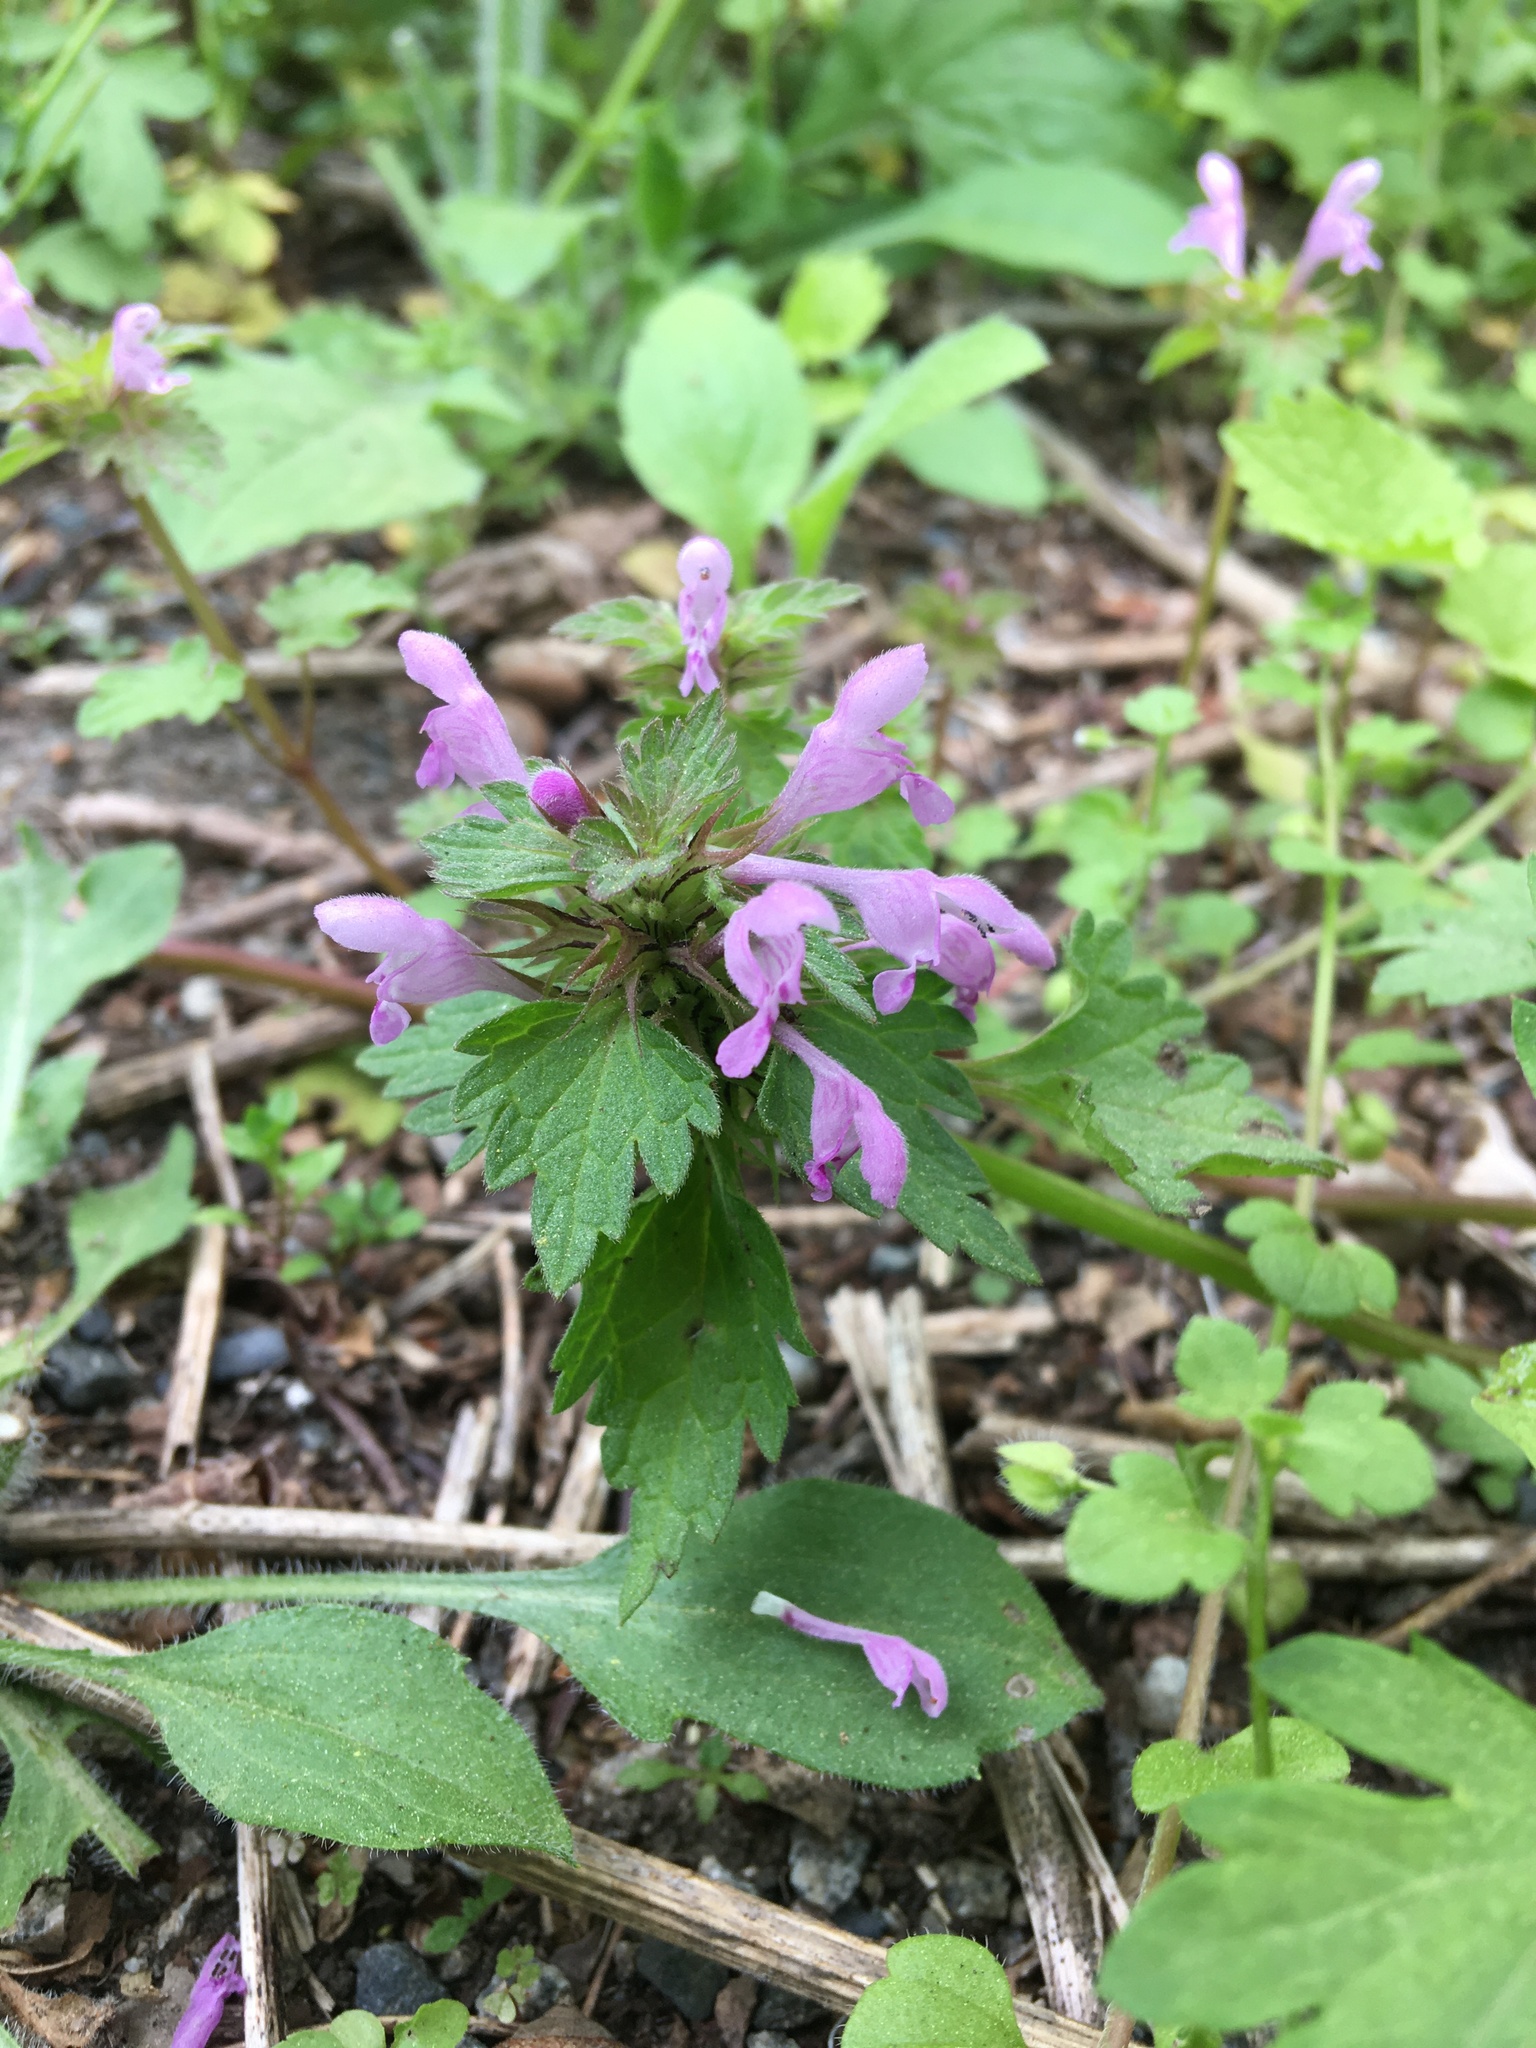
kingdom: Plantae
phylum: Tracheophyta
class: Magnoliopsida
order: Lamiales
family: Lamiaceae
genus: Lamium
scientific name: Lamium hybridum
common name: Cut-leaved dead-nettle
